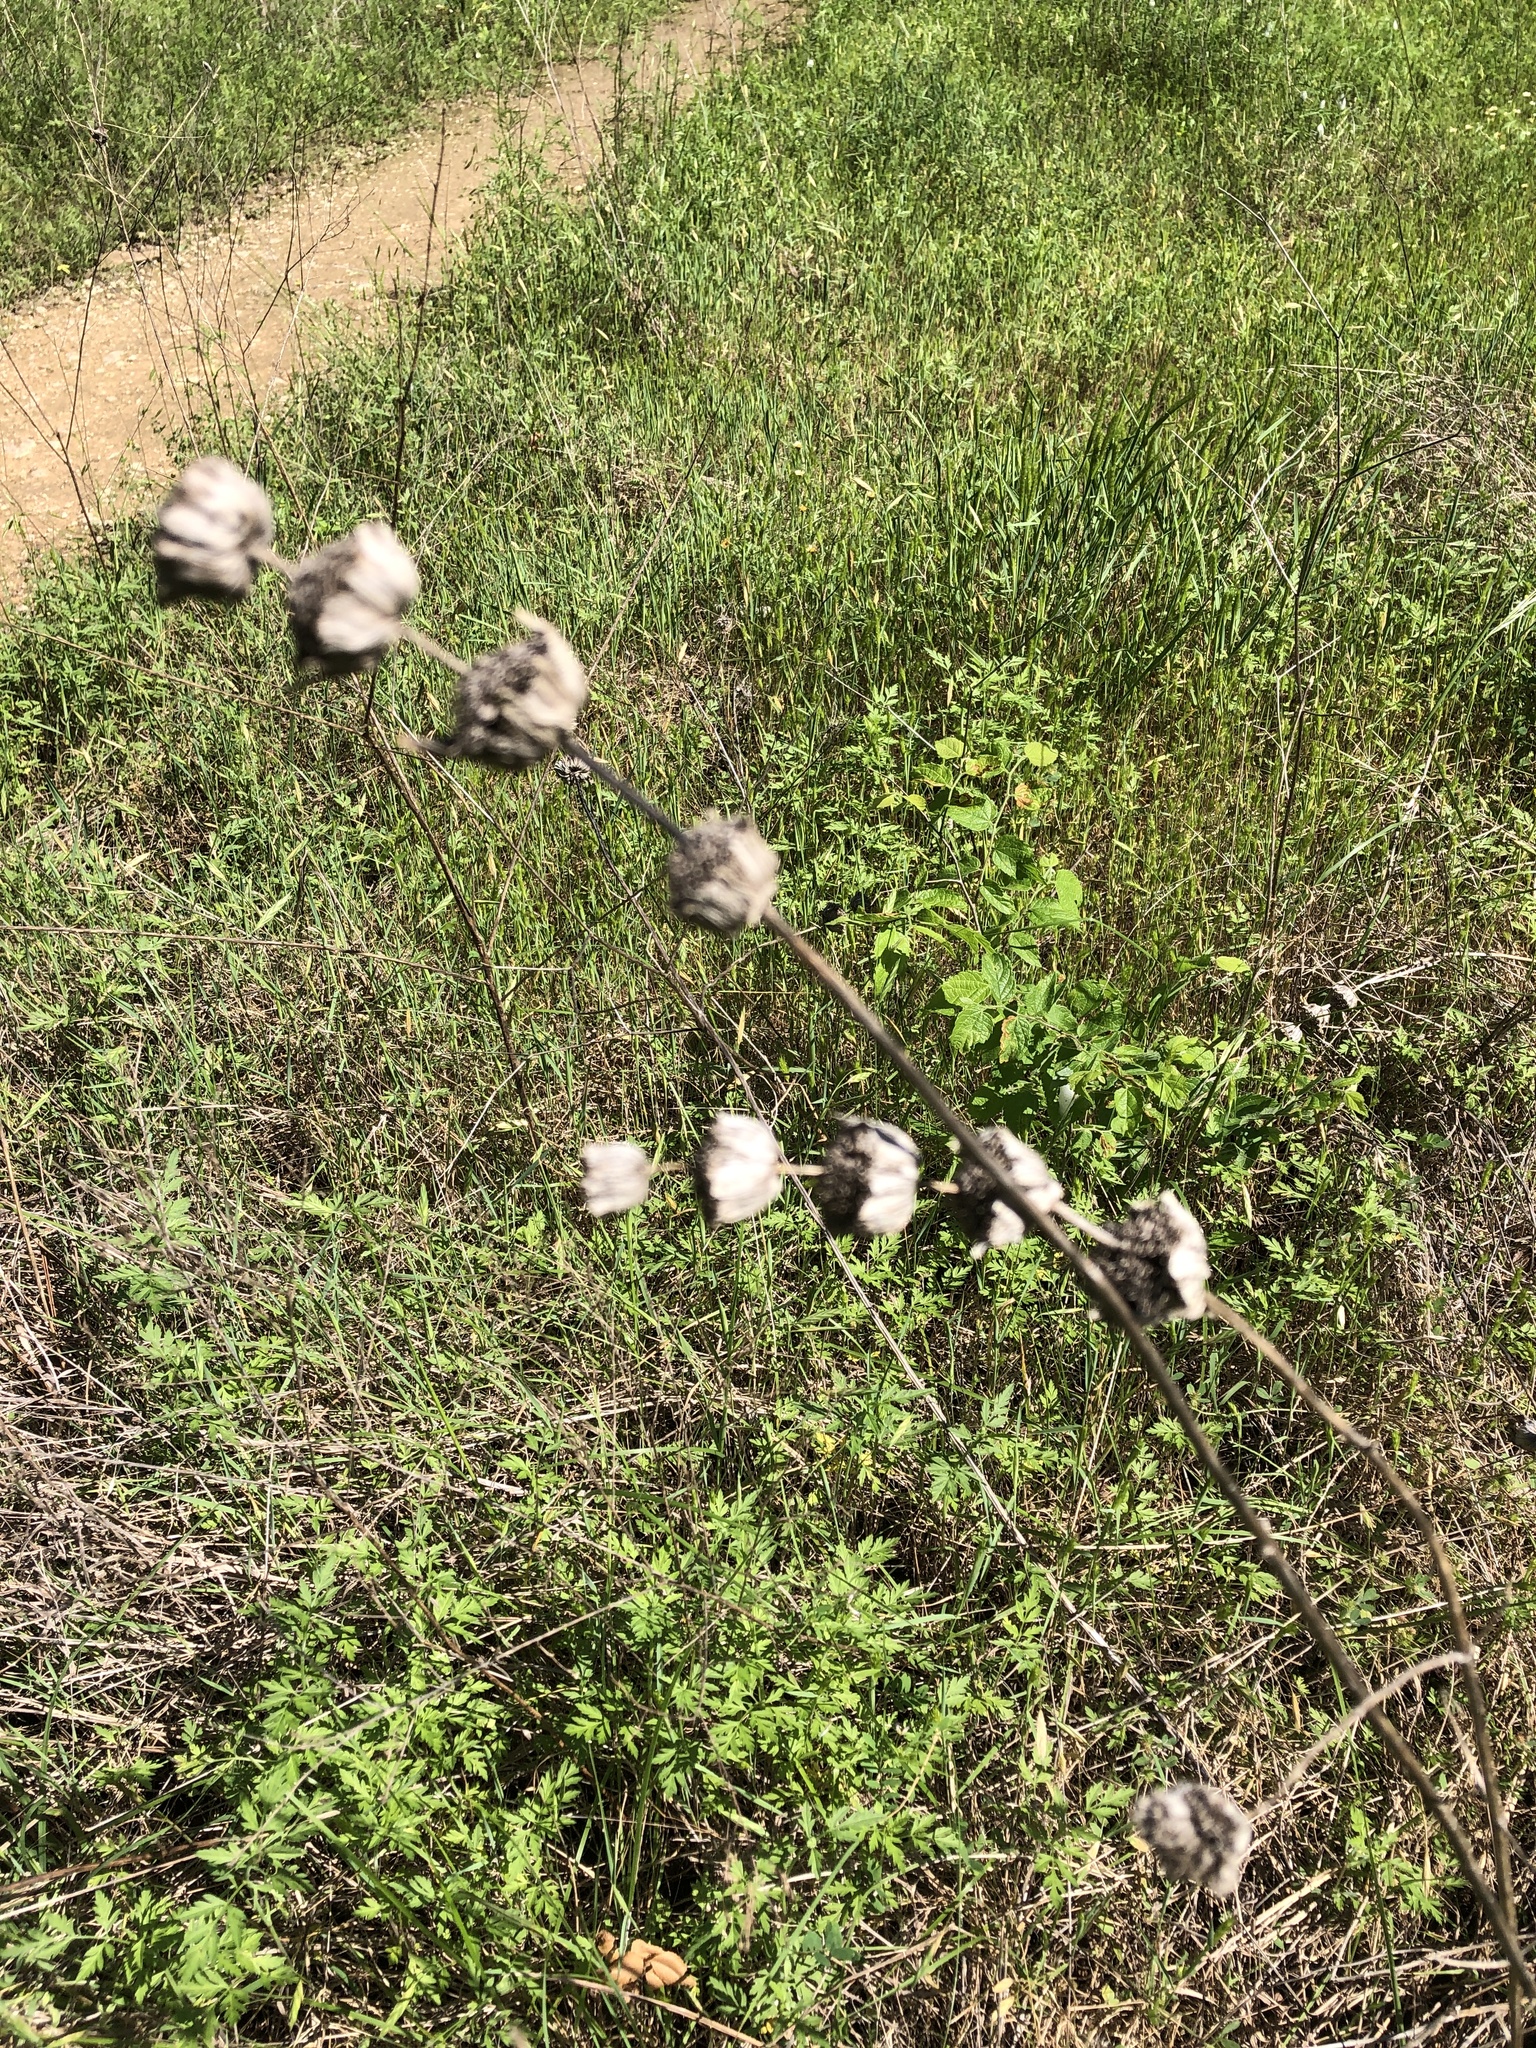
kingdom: Plantae
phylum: Tracheophyta
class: Magnoliopsida
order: Lamiales
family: Lamiaceae
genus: Monarda
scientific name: Monarda citriodora
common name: Lemon beebalm
